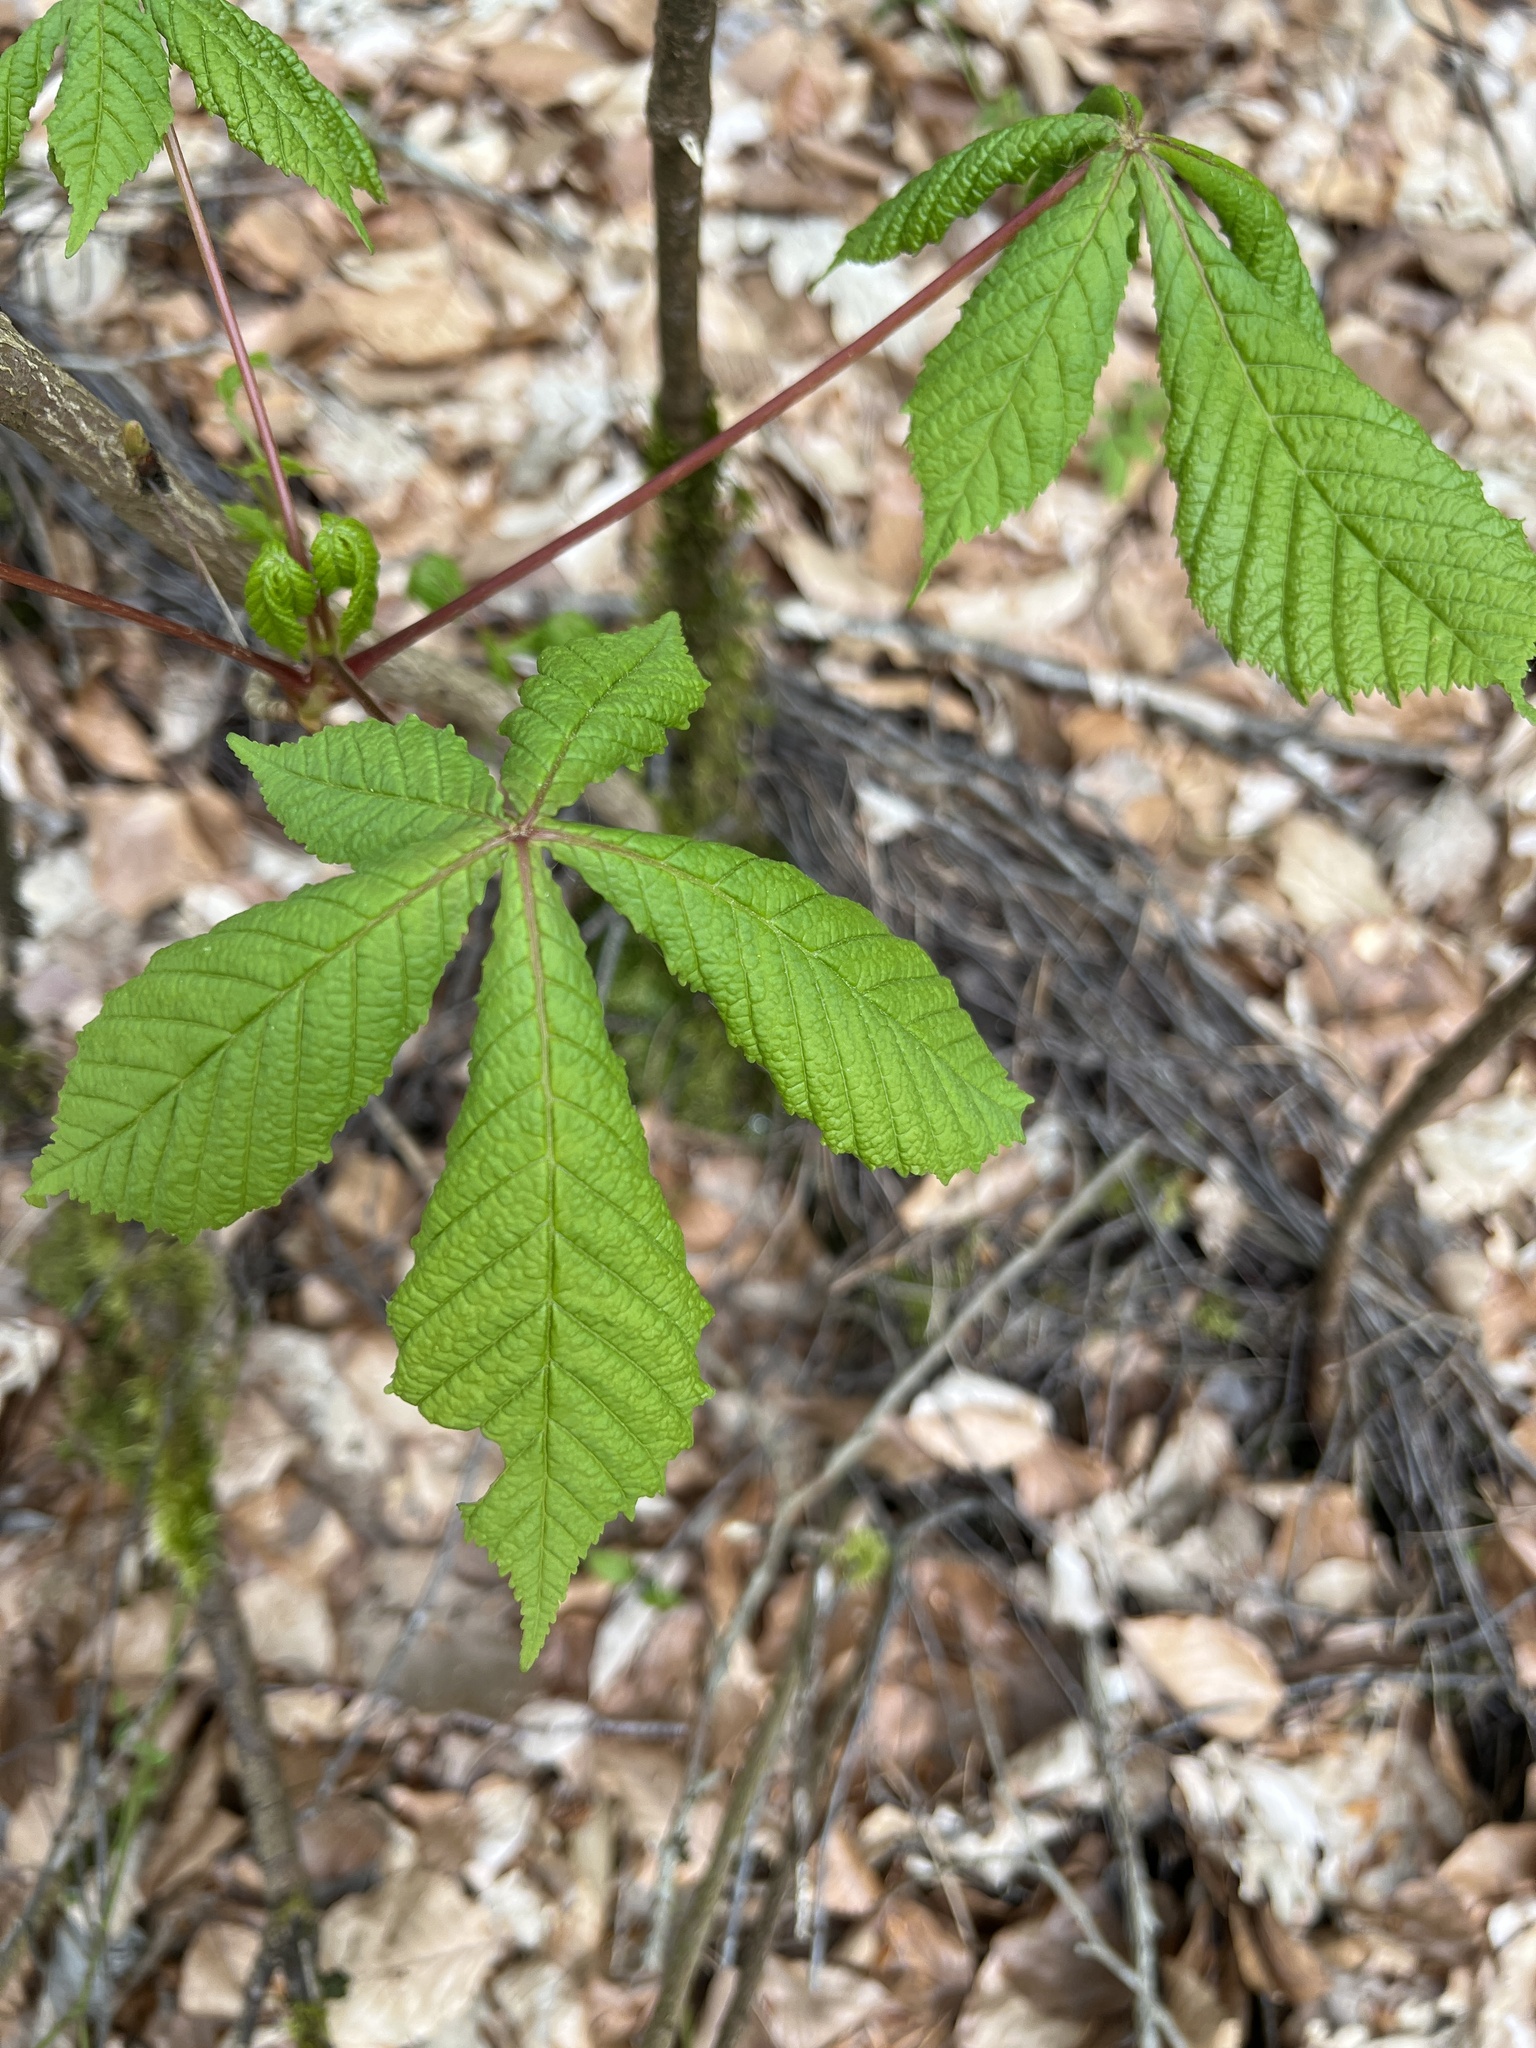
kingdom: Plantae
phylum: Tracheophyta
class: Magnoliopsida
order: Sapindales
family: Sapindaceae
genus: Aesculus
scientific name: Aesculus hippocastanum
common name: Horse-chestnut
